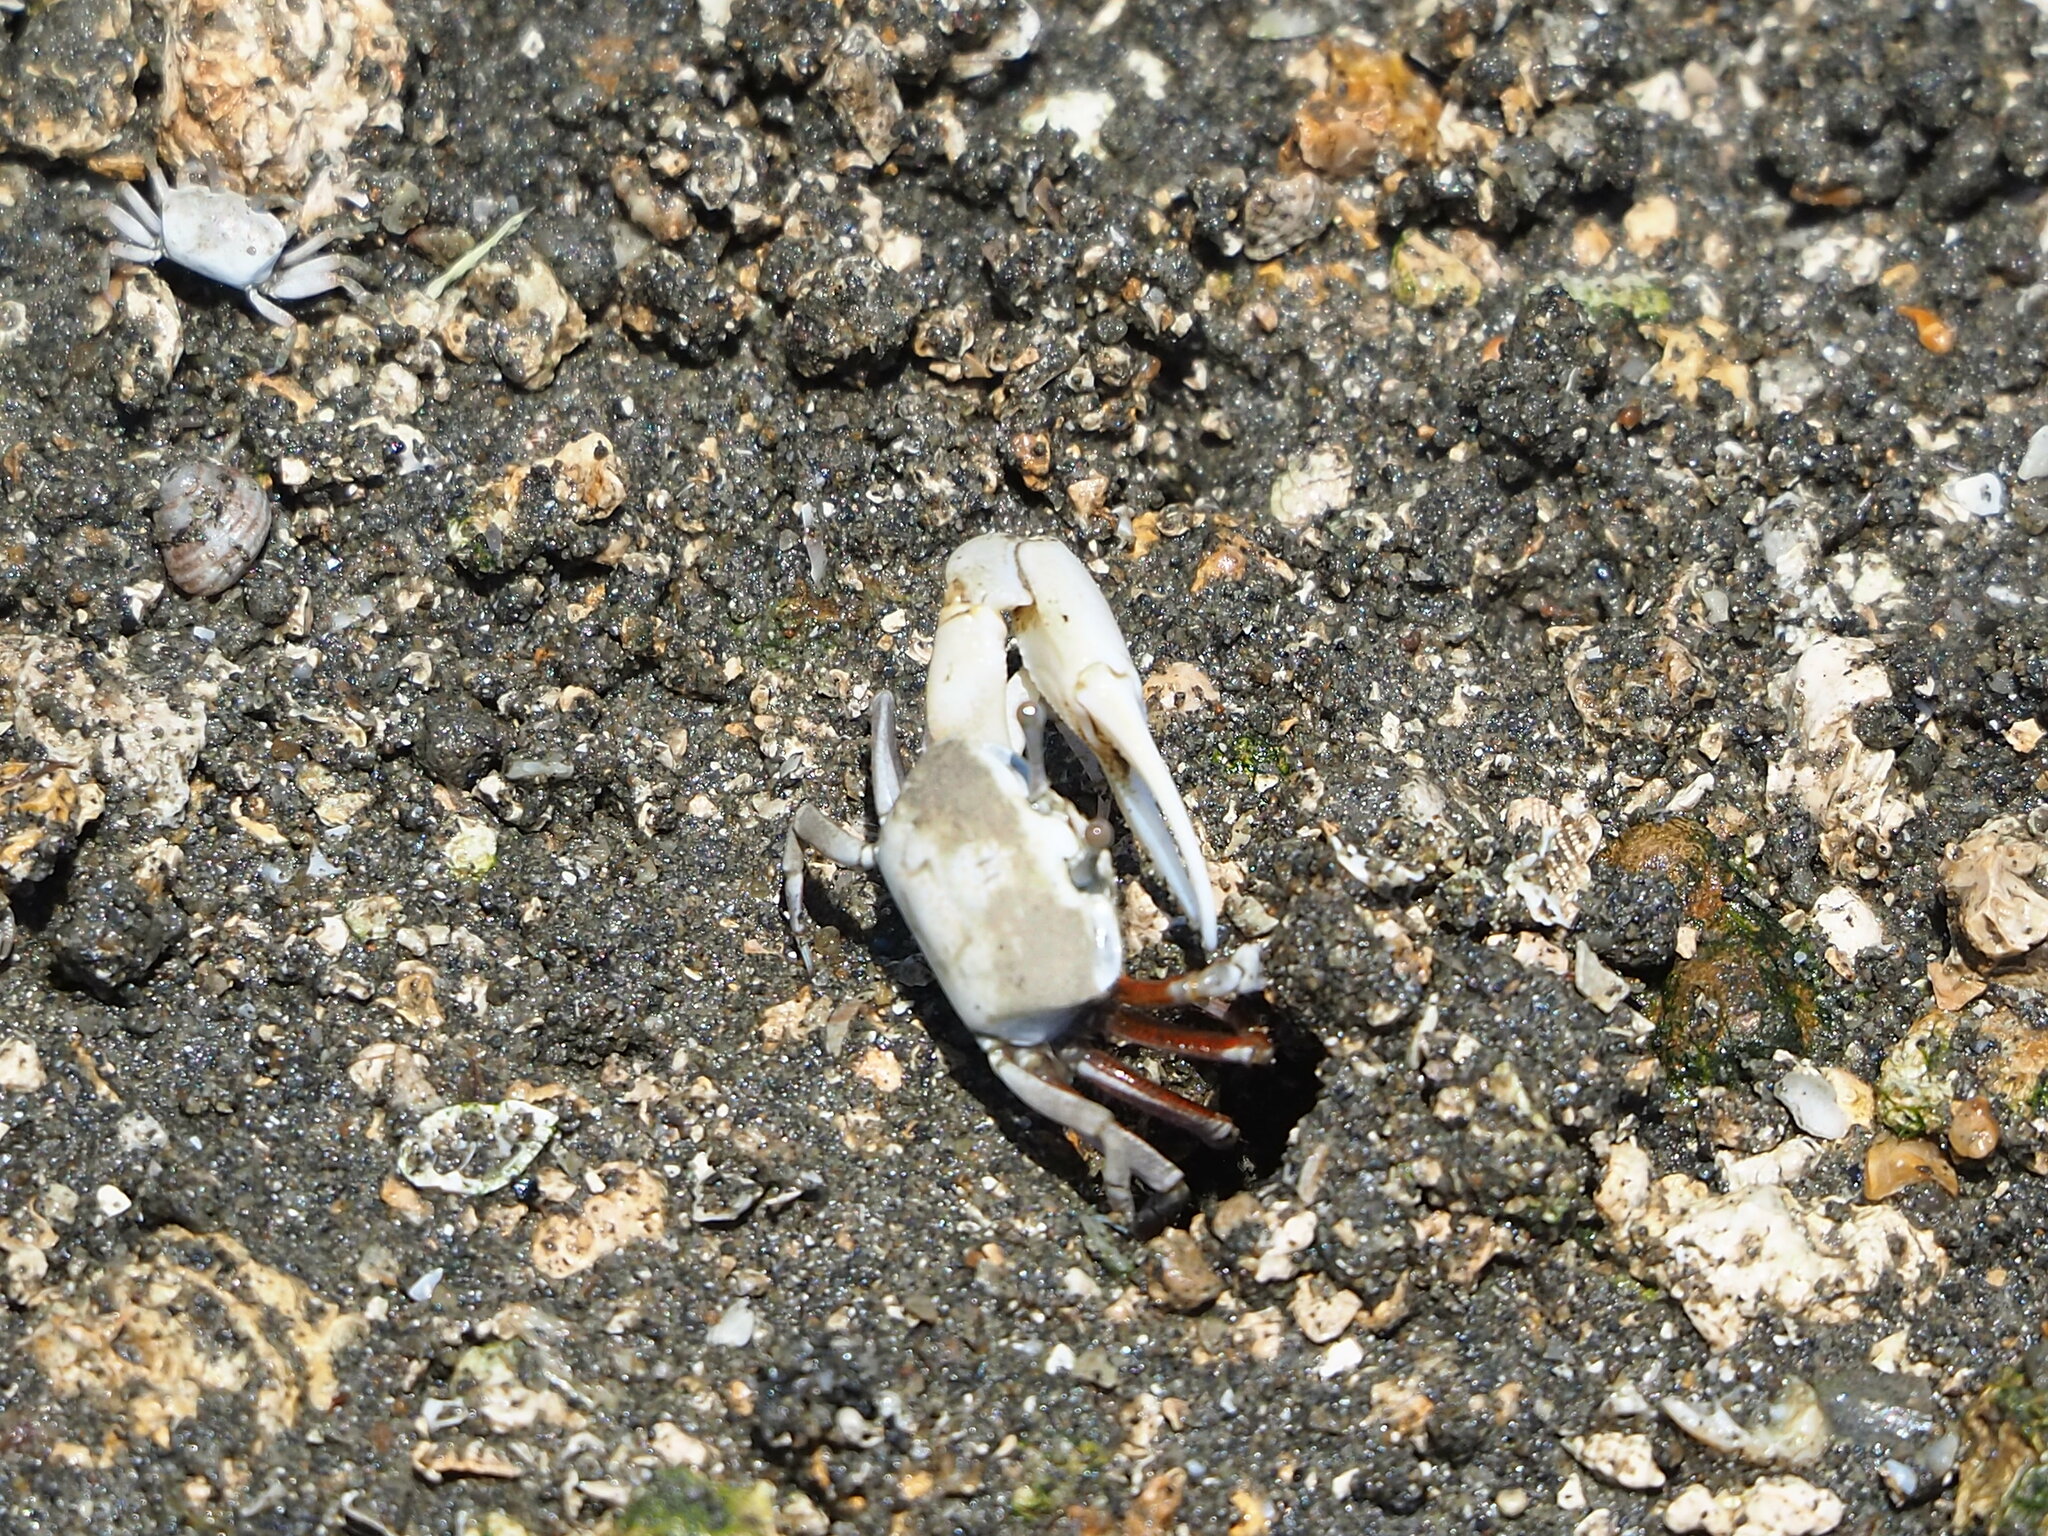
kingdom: Animalia
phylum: Arthropoda
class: Malacostraca
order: Decapoda
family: Ocypodidae
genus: Austruca
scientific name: Austruca lactea
